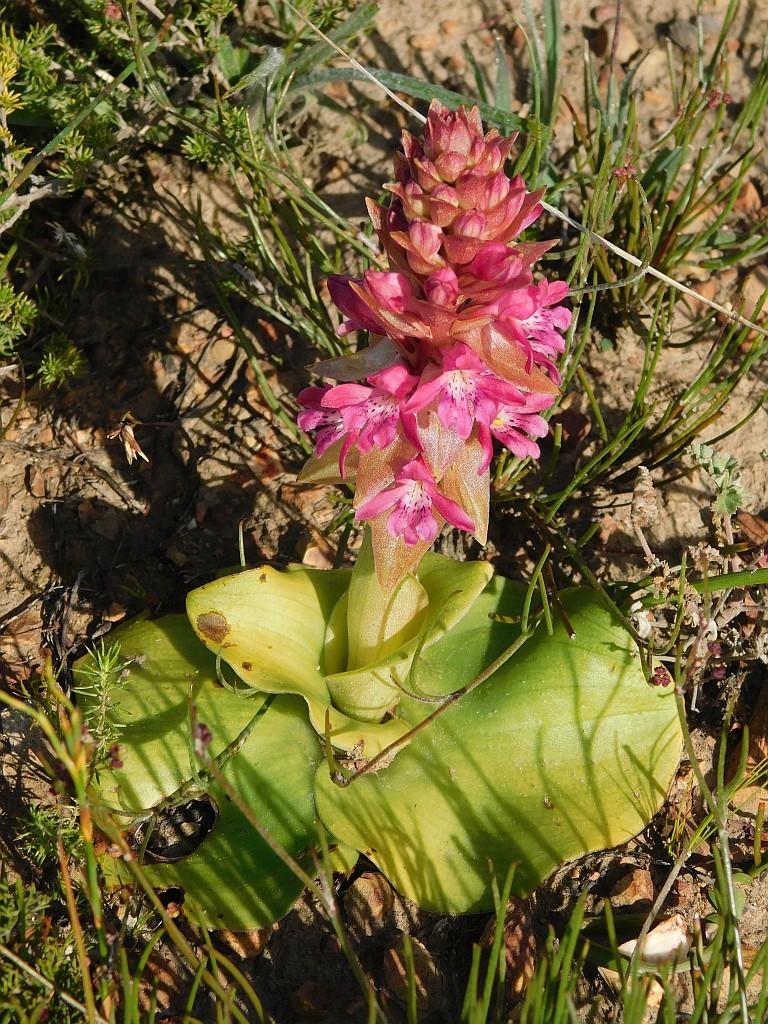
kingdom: Plantae
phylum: Tracheophyta
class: Liliopsida
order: Asparagales
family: Orchidaceae
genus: Satyrium
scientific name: Satyrium erectum
